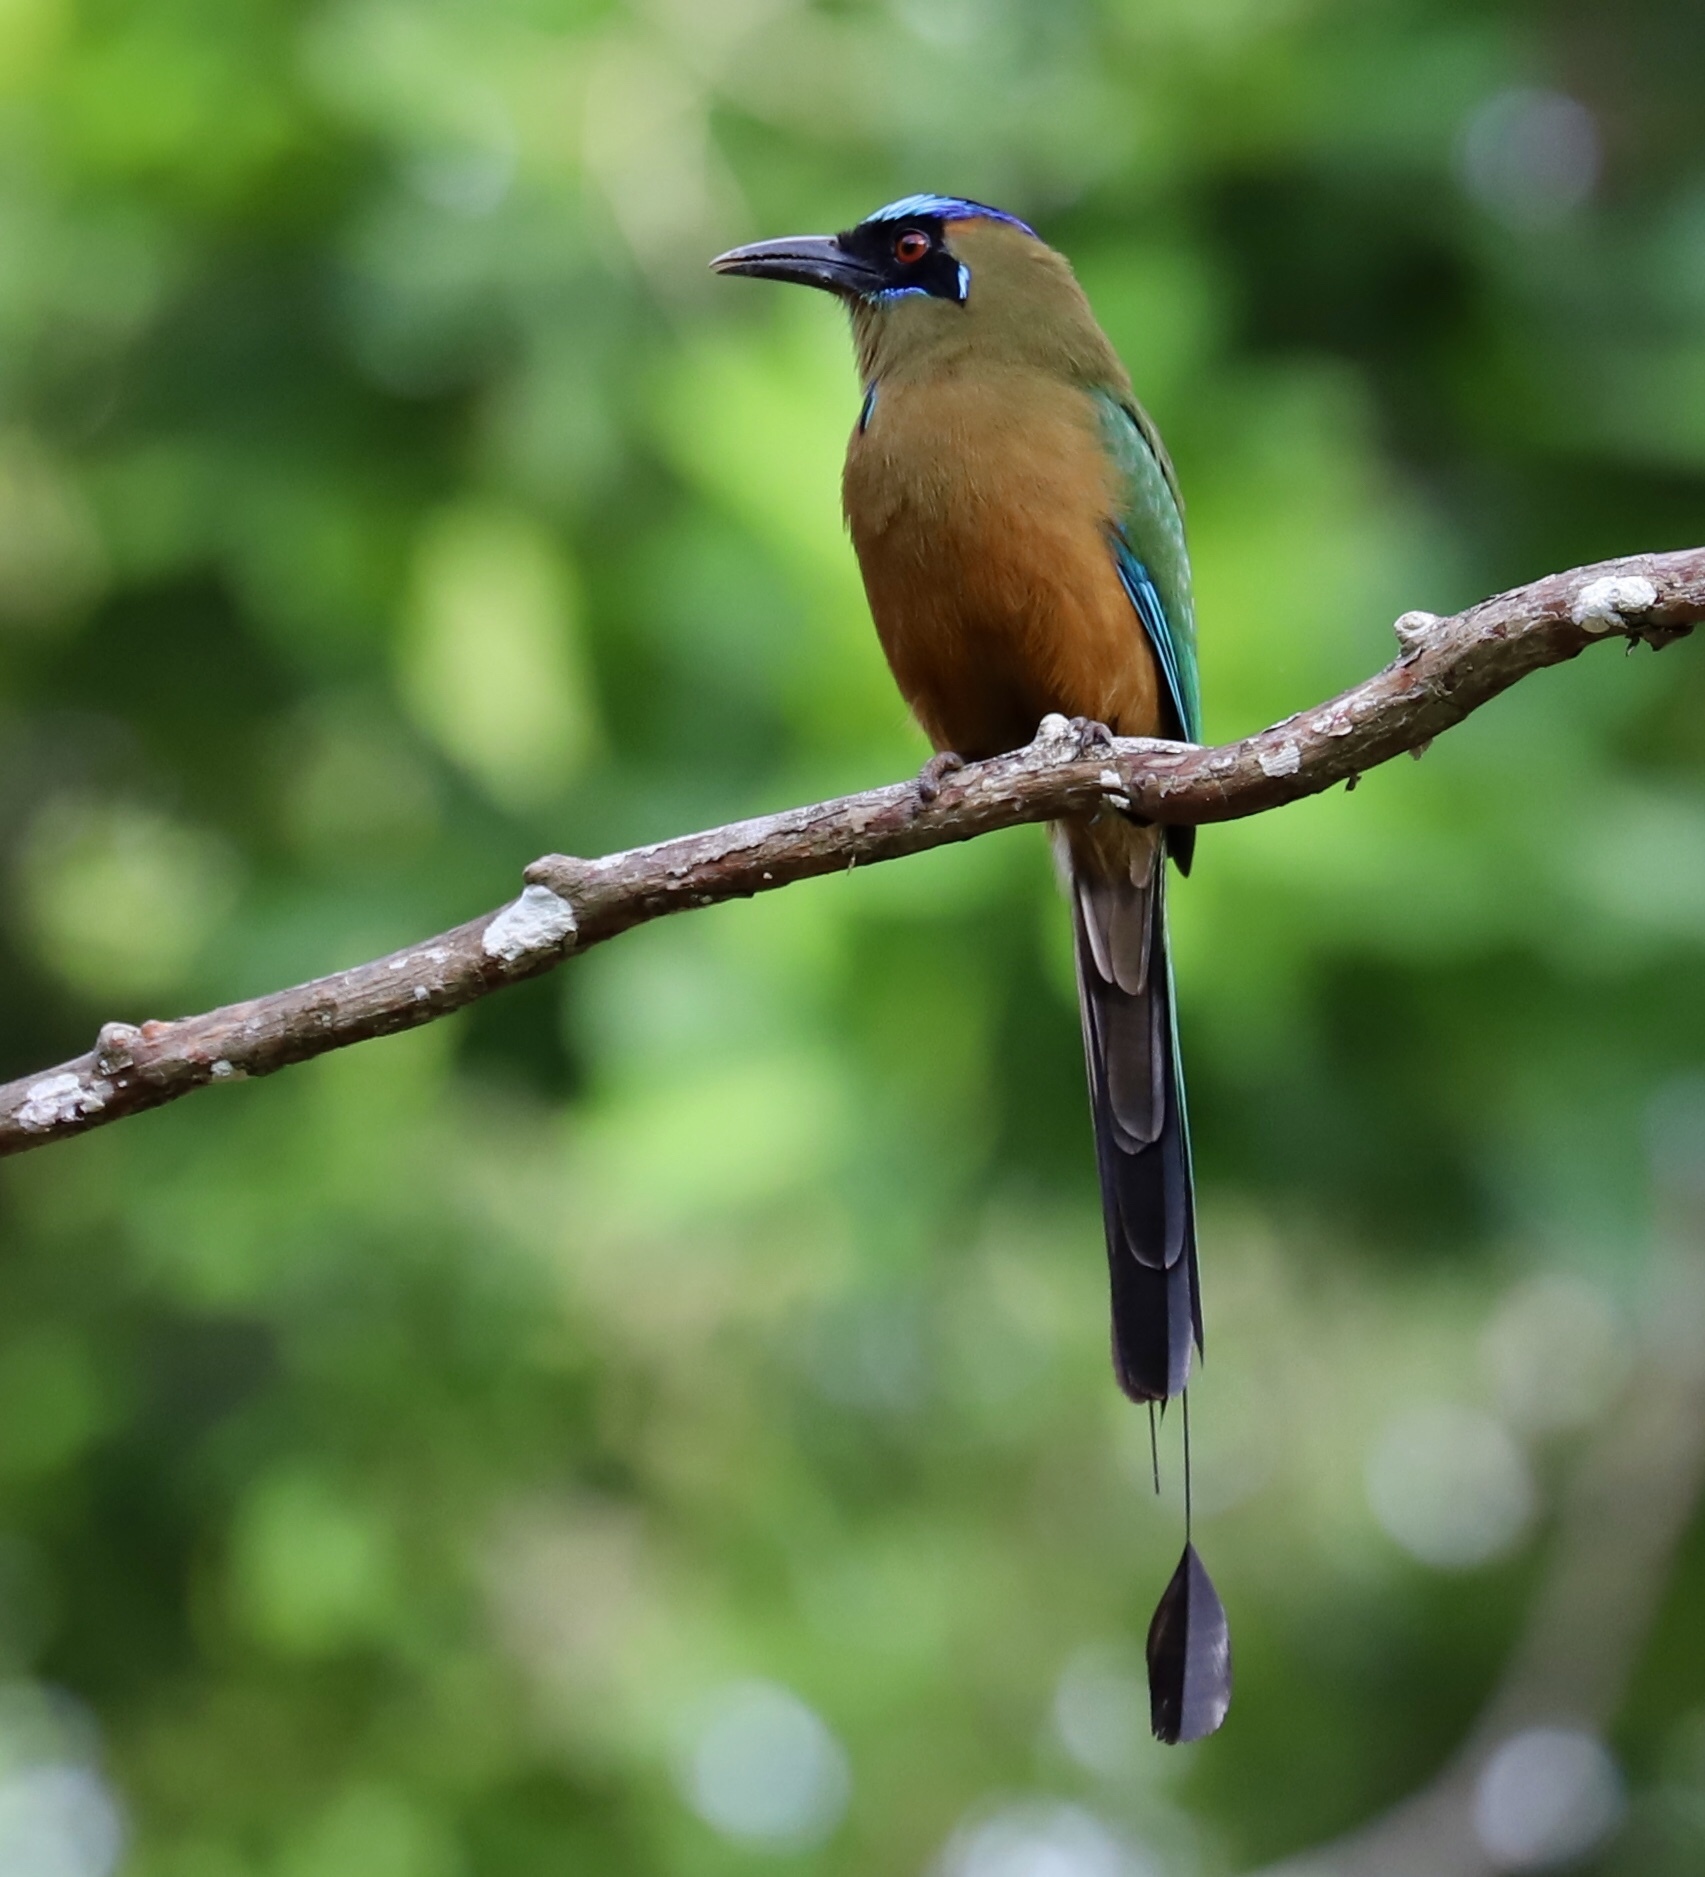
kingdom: Animalia
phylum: Chordata
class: Aves
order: Coraciiformes
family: Momotidae
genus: Momotus
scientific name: Momotus subrufescens
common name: Whooping motmot
